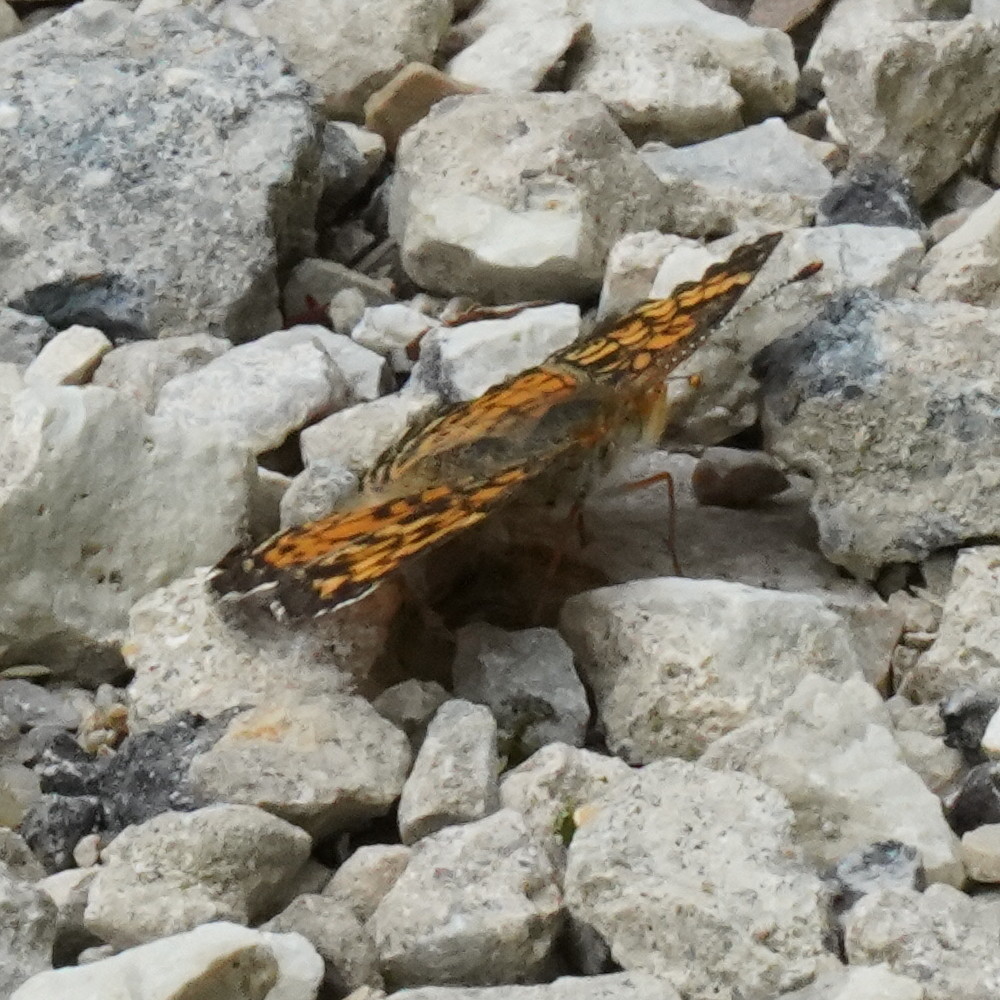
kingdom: Animalia
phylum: Arthropoda
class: Insecta
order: Lepidoptera
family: Nymphalidae
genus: Phyciodes
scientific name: Phyciodes tharos
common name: Pearl crescent
